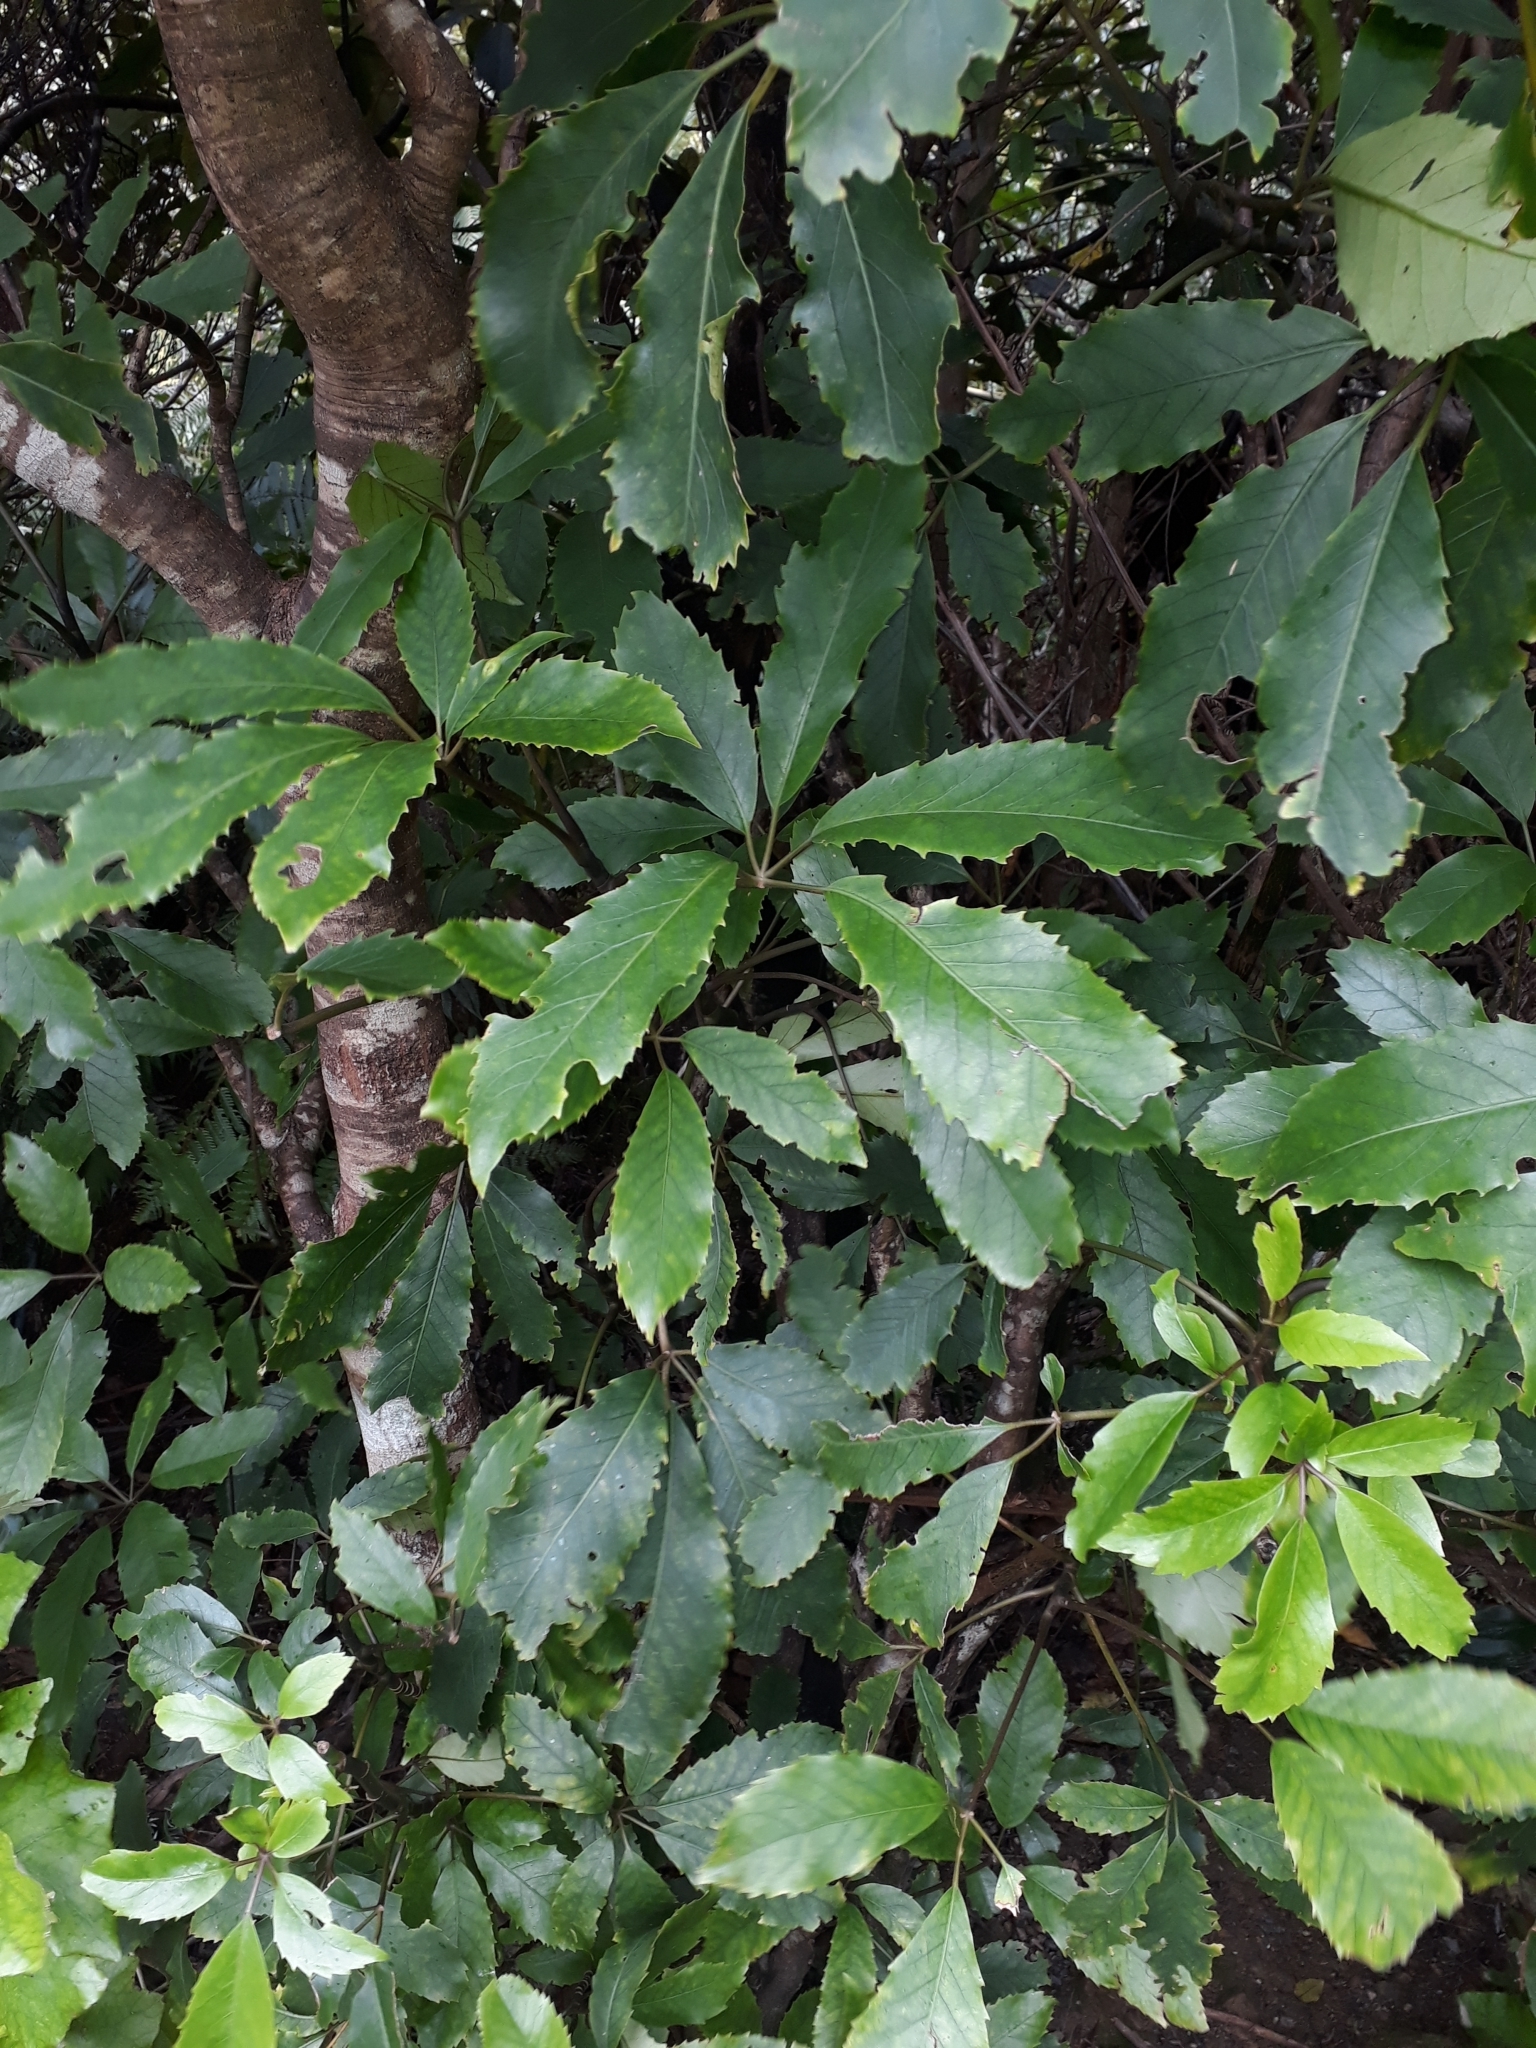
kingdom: Plantae
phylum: Tracheophyta
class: Magnoliopsida
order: Apiales
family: Araliaceae
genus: Neopanax
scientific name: Neopanax arboreus
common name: Five-fingers
